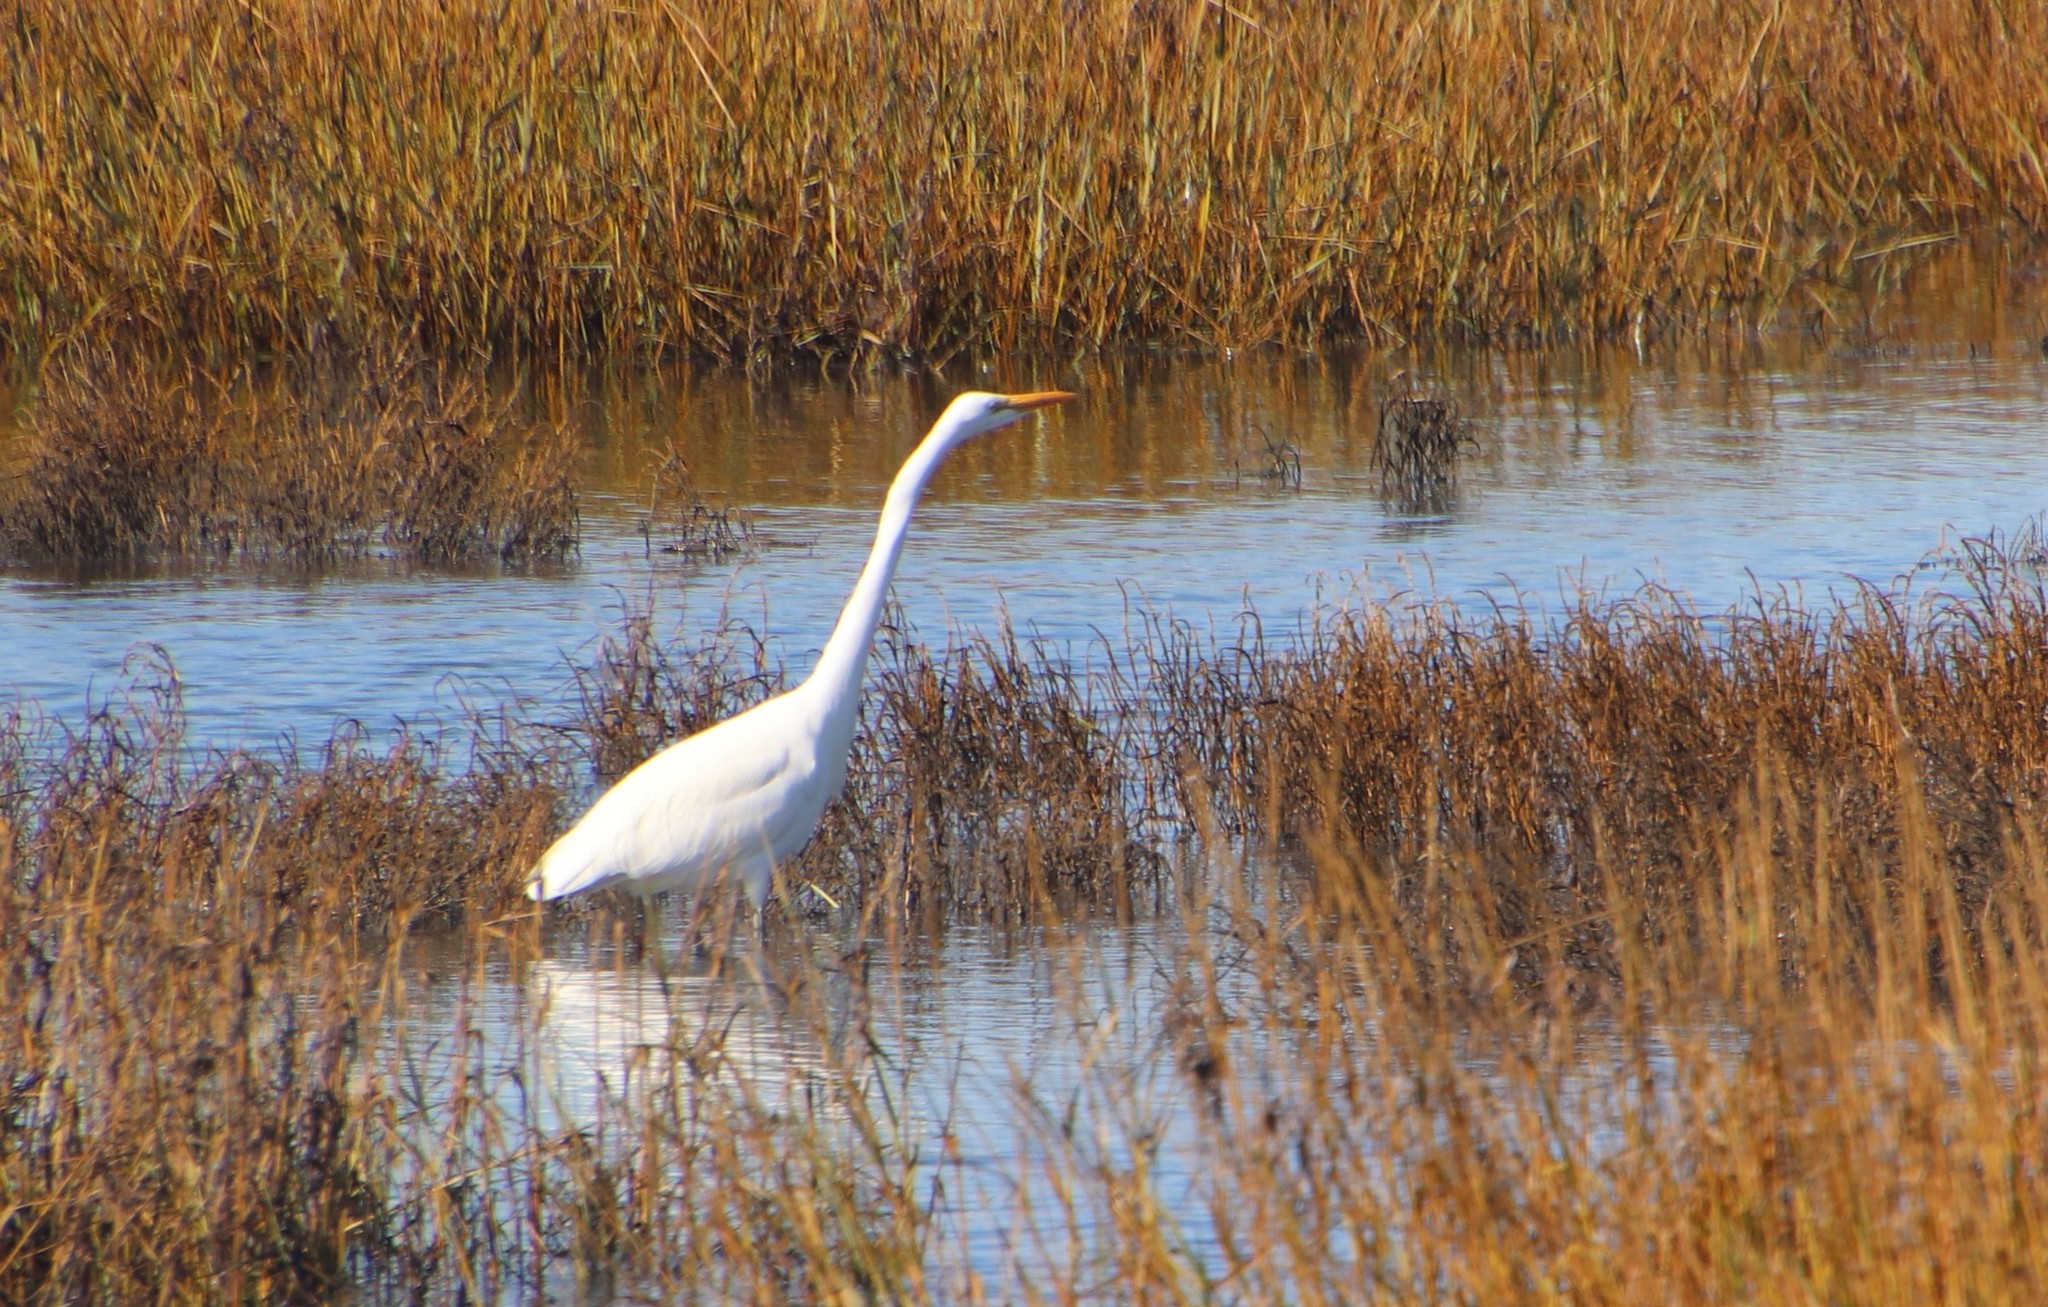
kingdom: Animalia
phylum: Chordata
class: Aves
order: Pelecaniformes
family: Ardeidae
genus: Ardea
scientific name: Ardea alba
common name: Great egret
